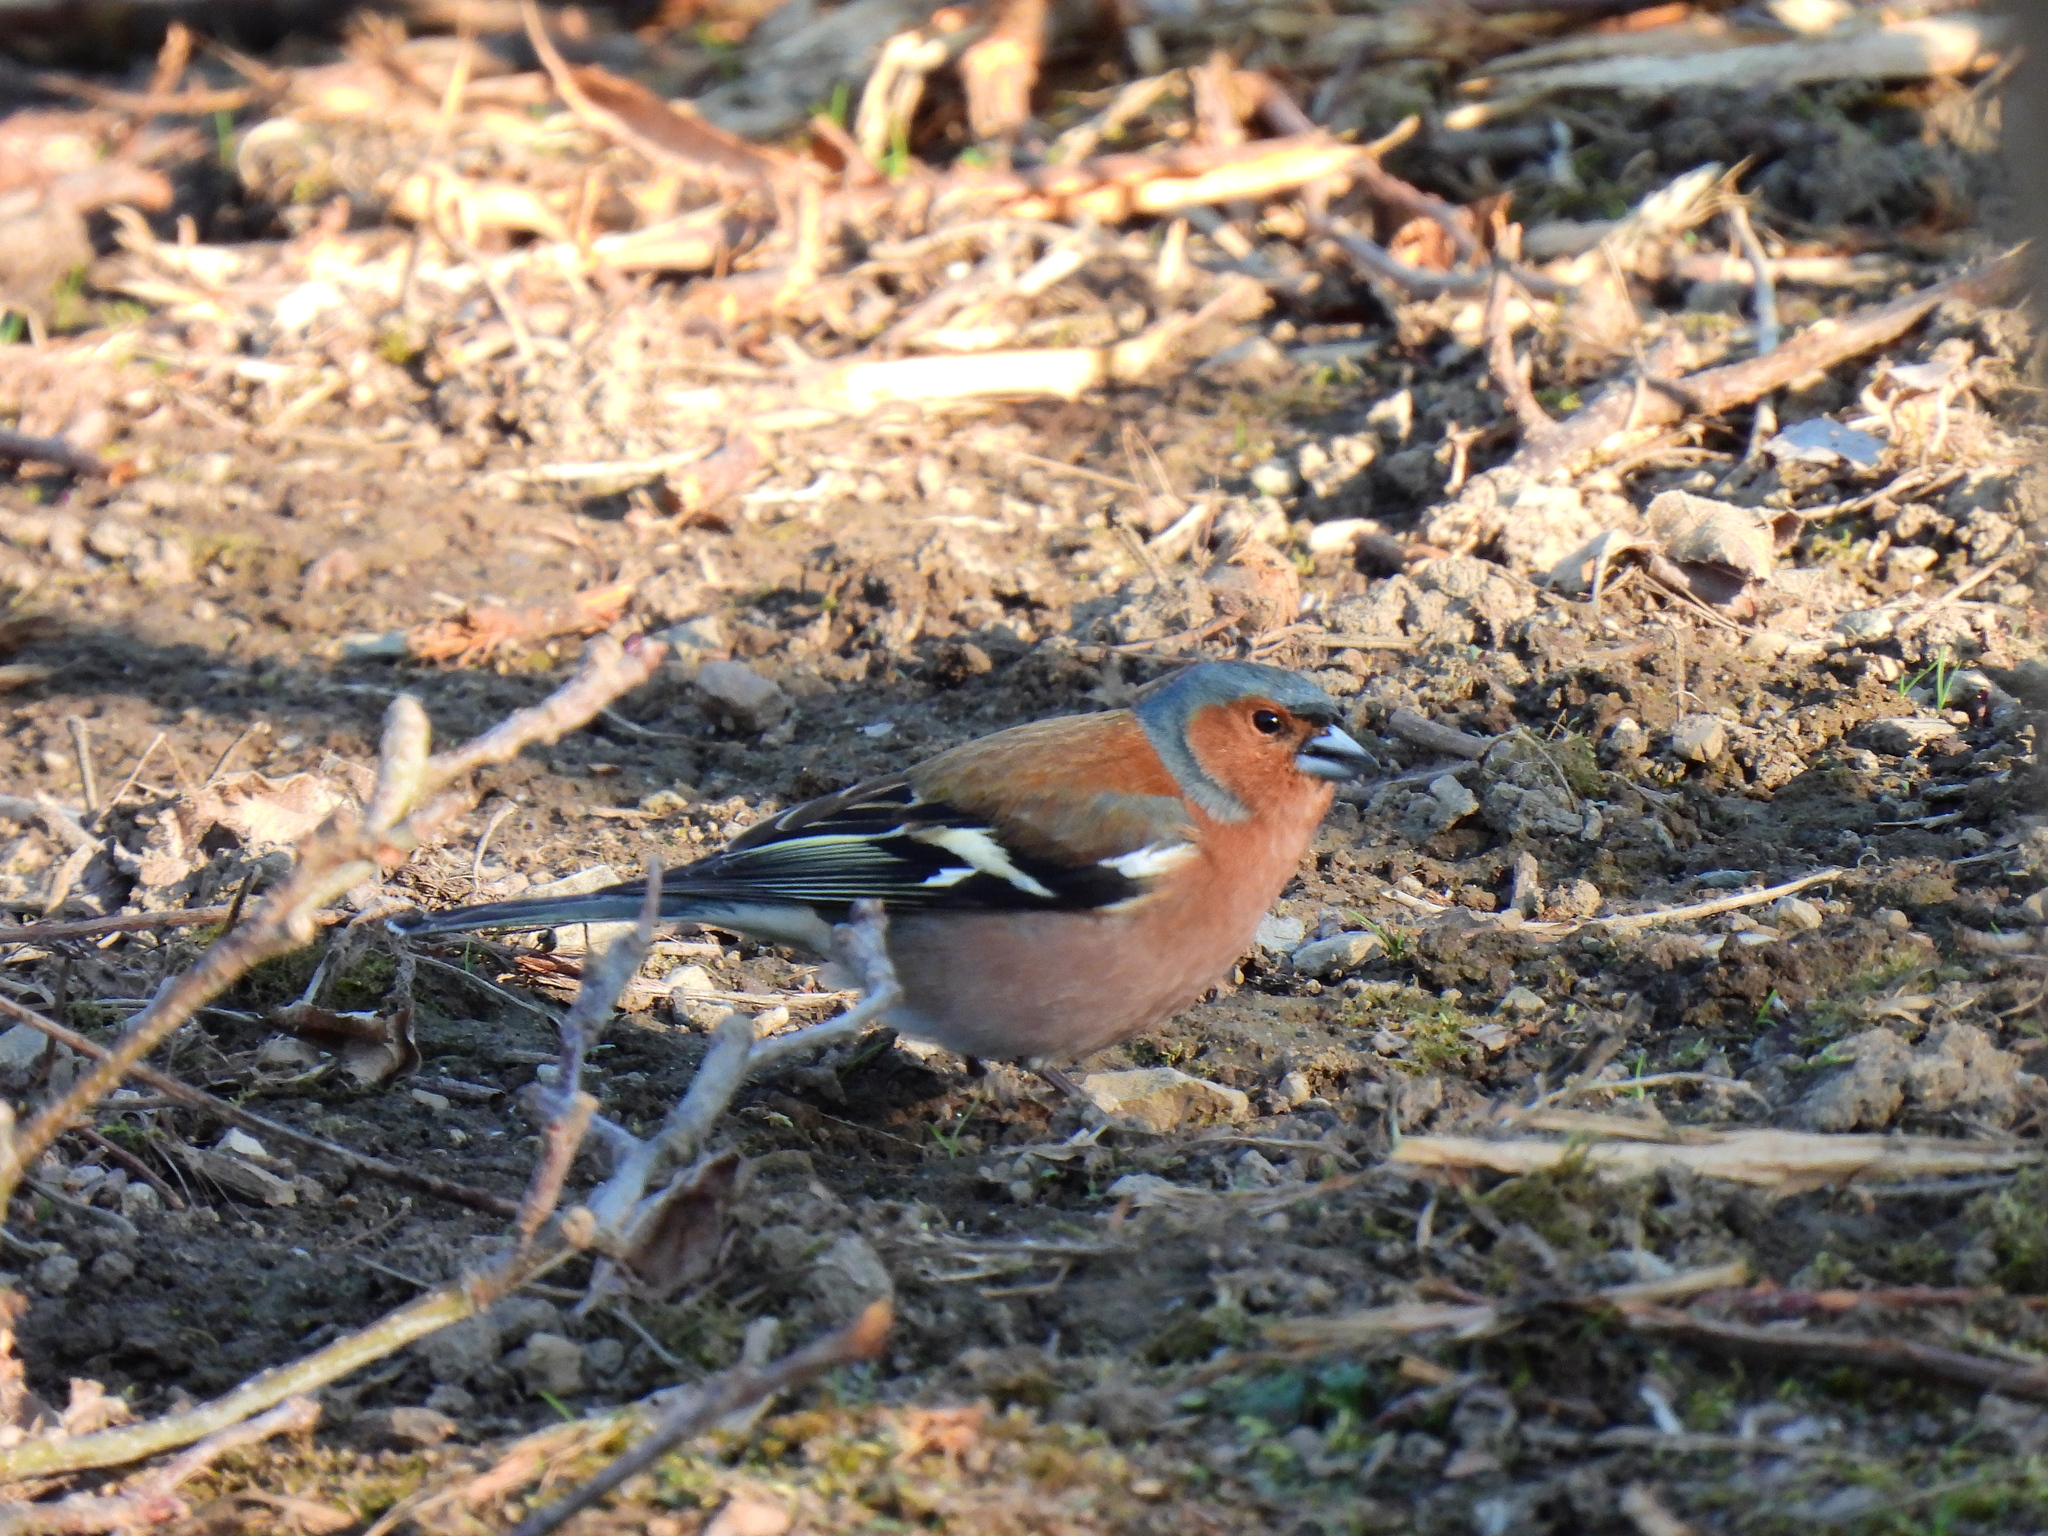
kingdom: Animalia
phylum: Chordata
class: Aves
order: Passeriformes
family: Fringillidae
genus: Fringilla
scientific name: Fringilla coelebs
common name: Common chaffinch
